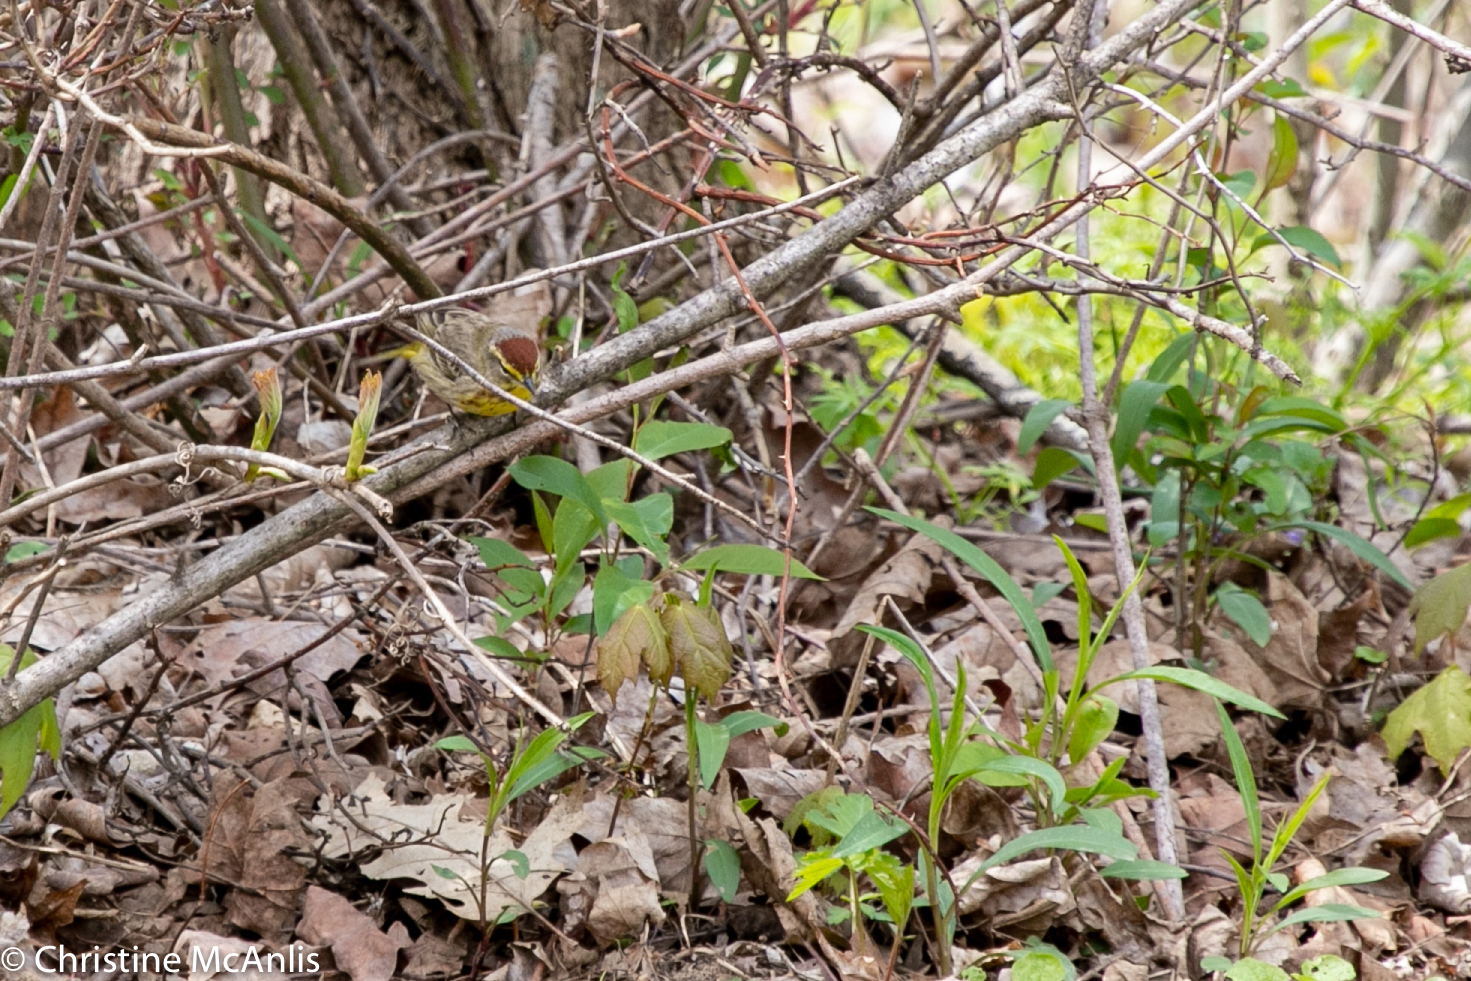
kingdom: Animalia
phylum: Chordata
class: Aves
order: Passeriformes
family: Parulidae
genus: Setophaga
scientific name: Setophaga palmarum
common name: Palm warbler
